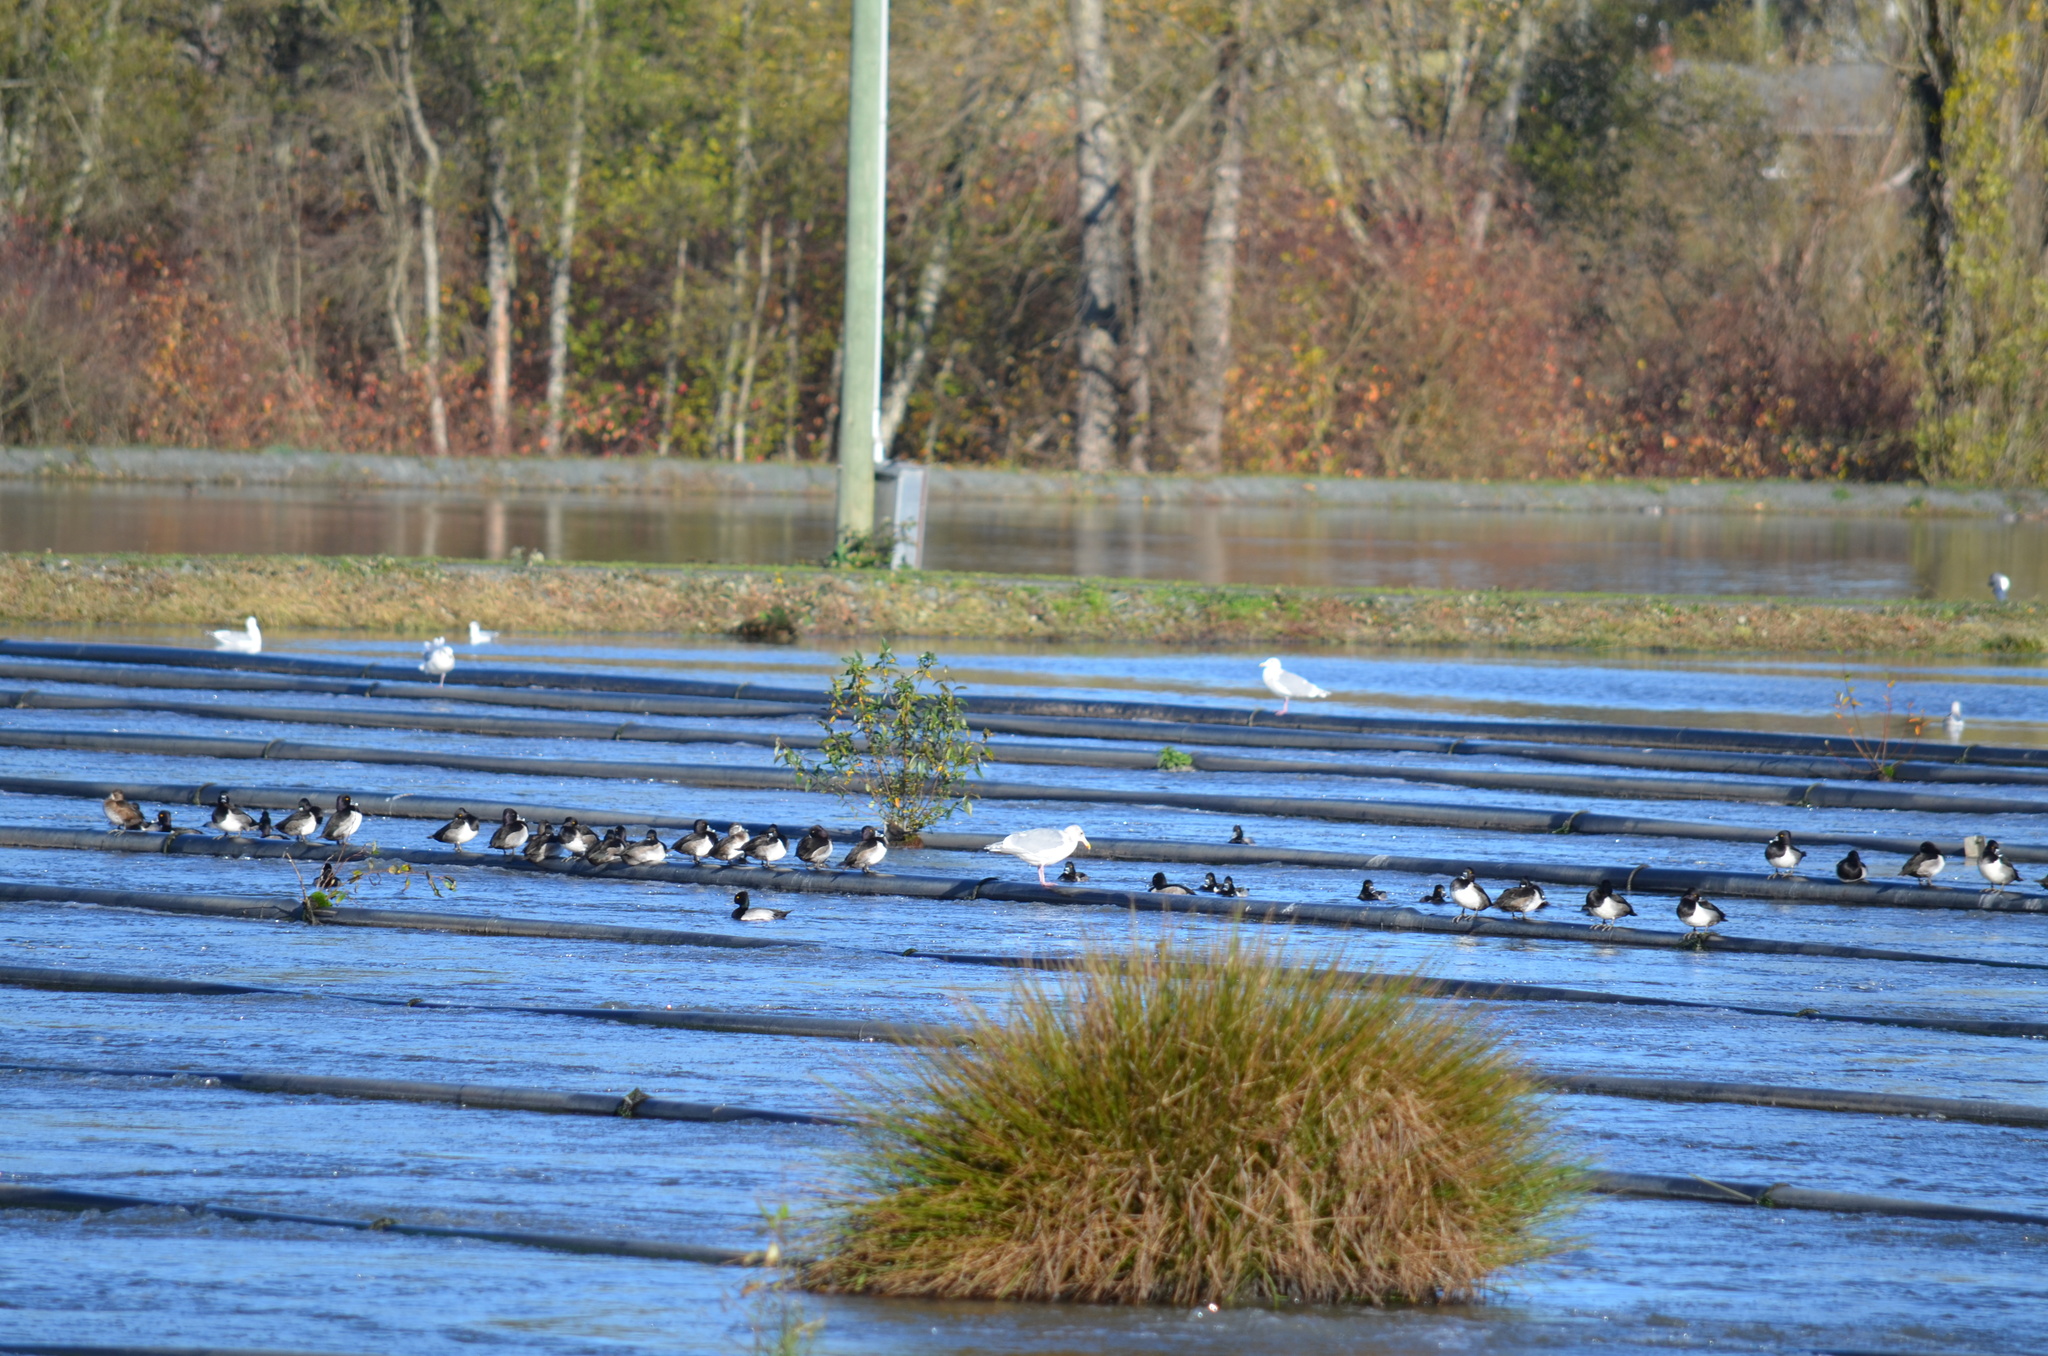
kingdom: Animalia
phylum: Chordata
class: Aves
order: Anseriformes
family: Anatidae
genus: Aythya
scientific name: Aythya collaris
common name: Ring-necked duck
